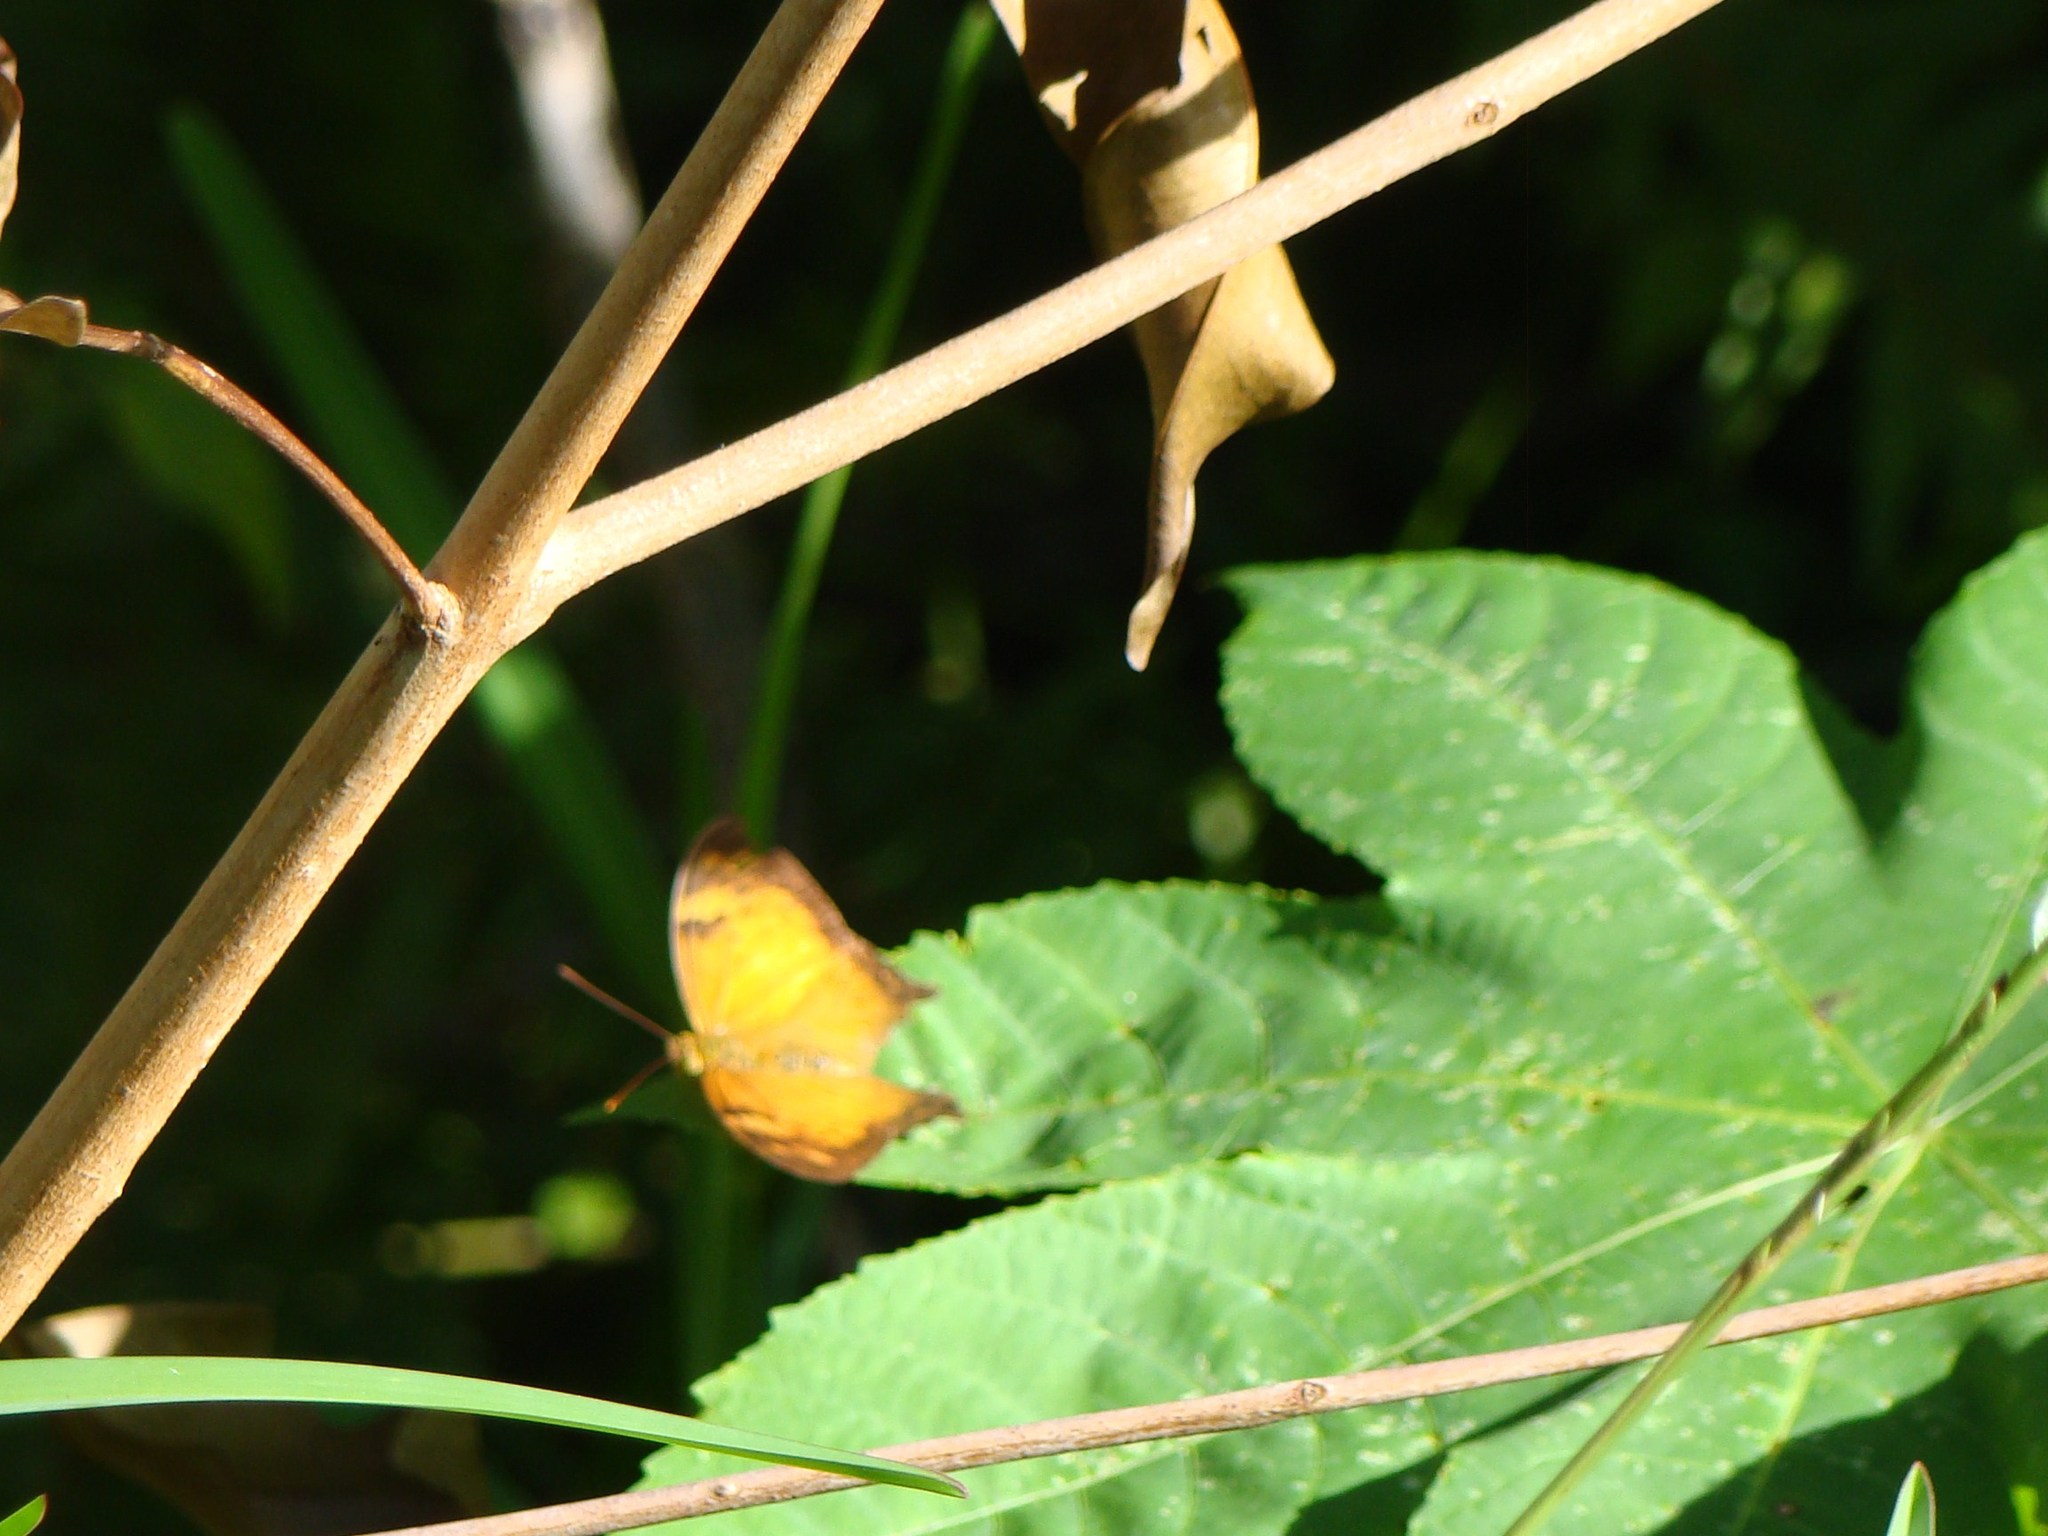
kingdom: Animalia
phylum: Arthropoda
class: Insecta
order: Lepidoptera
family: Nymphalidae
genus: Vagrans
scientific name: Vagrans egista
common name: Tailed rustic
